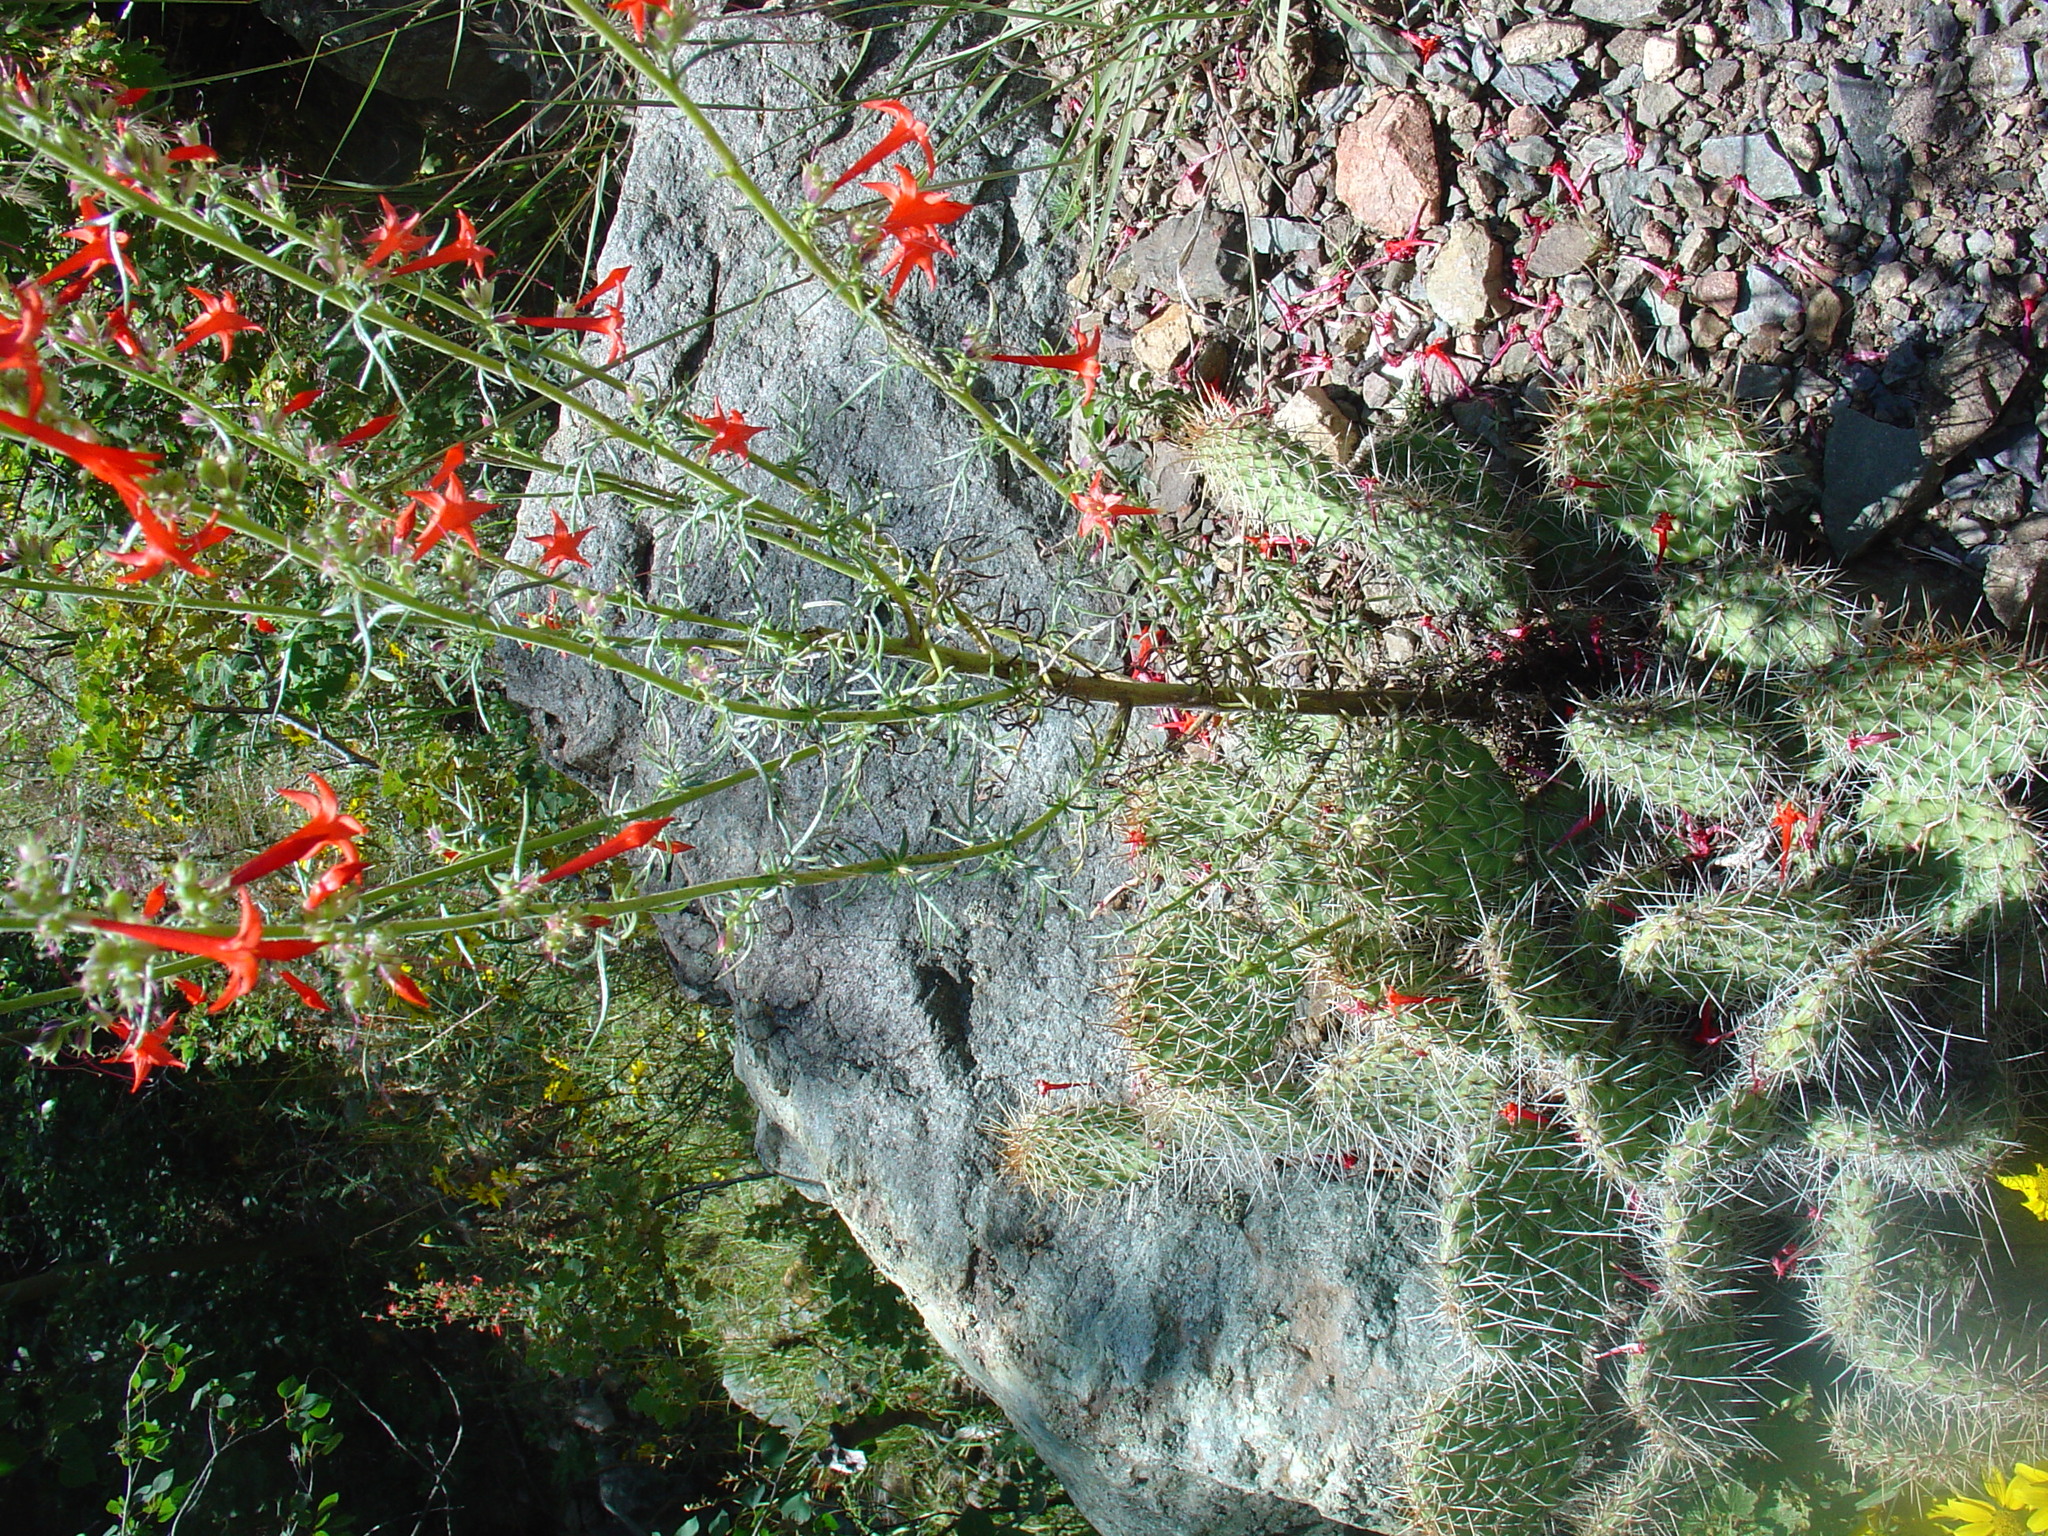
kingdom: Plantae
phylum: Tracheophyta
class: Magnoliopsida
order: Ericales
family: Polemoniaceae
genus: Ipomopsis
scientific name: Ipomopsis aggregata
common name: Scarlet gilia
